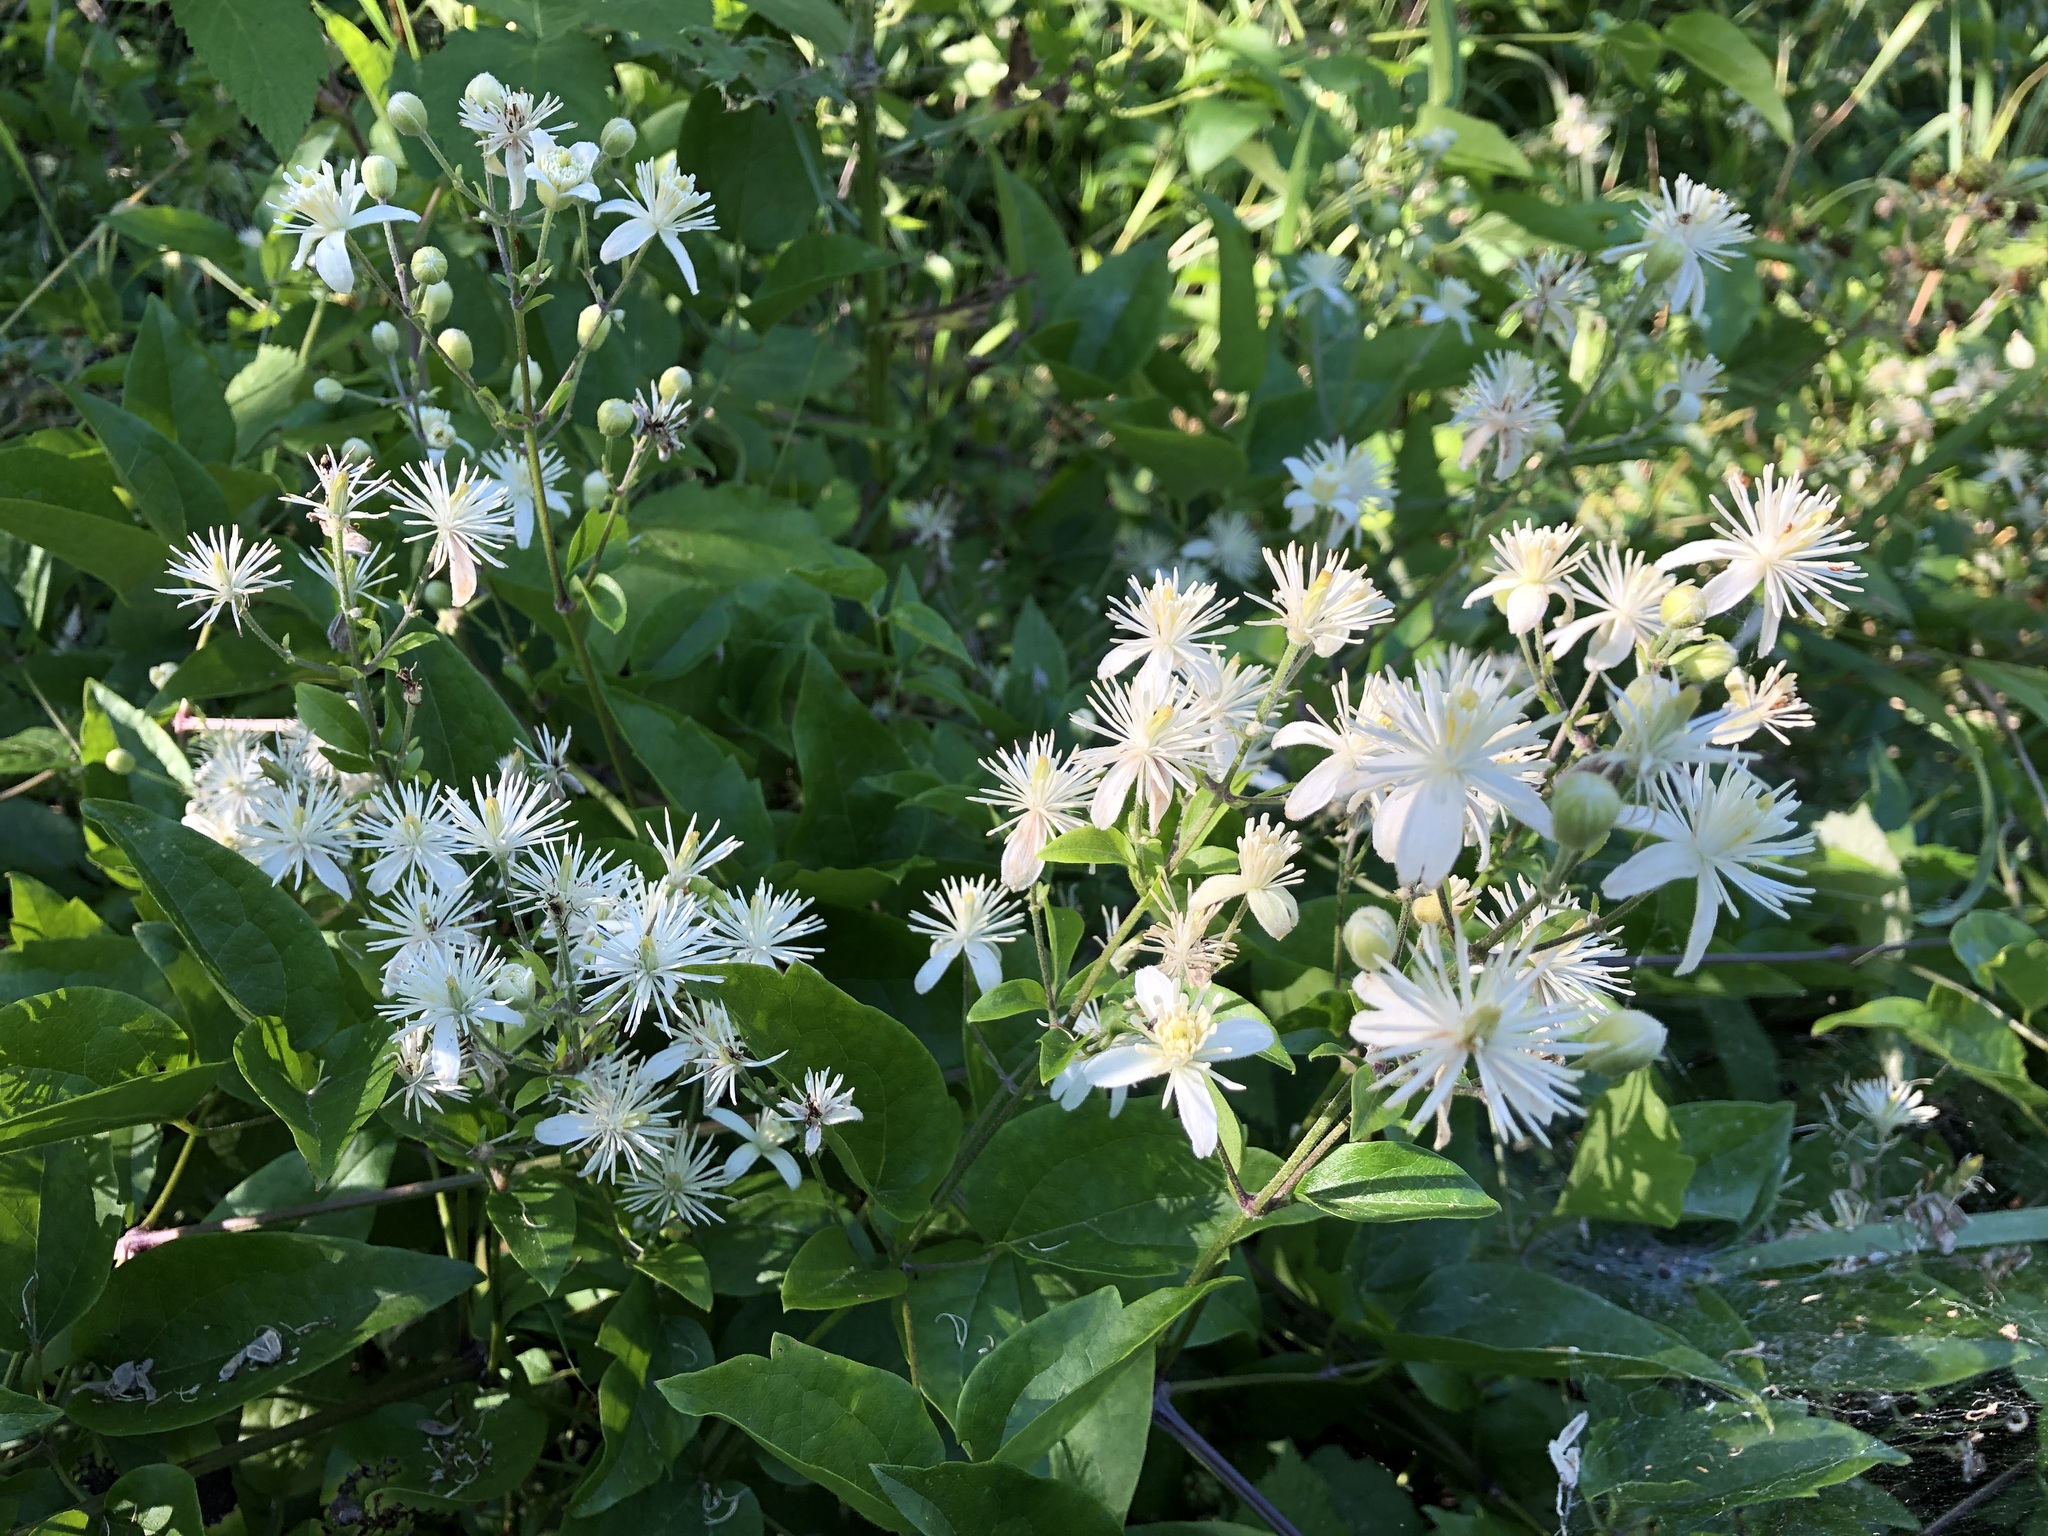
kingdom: Plantae
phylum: Tracheophyta
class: Magnoliopsida
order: Ranunculales
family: Ranunculaceae
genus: Clematis
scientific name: Clematis vitalba
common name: Evergreen clematis
